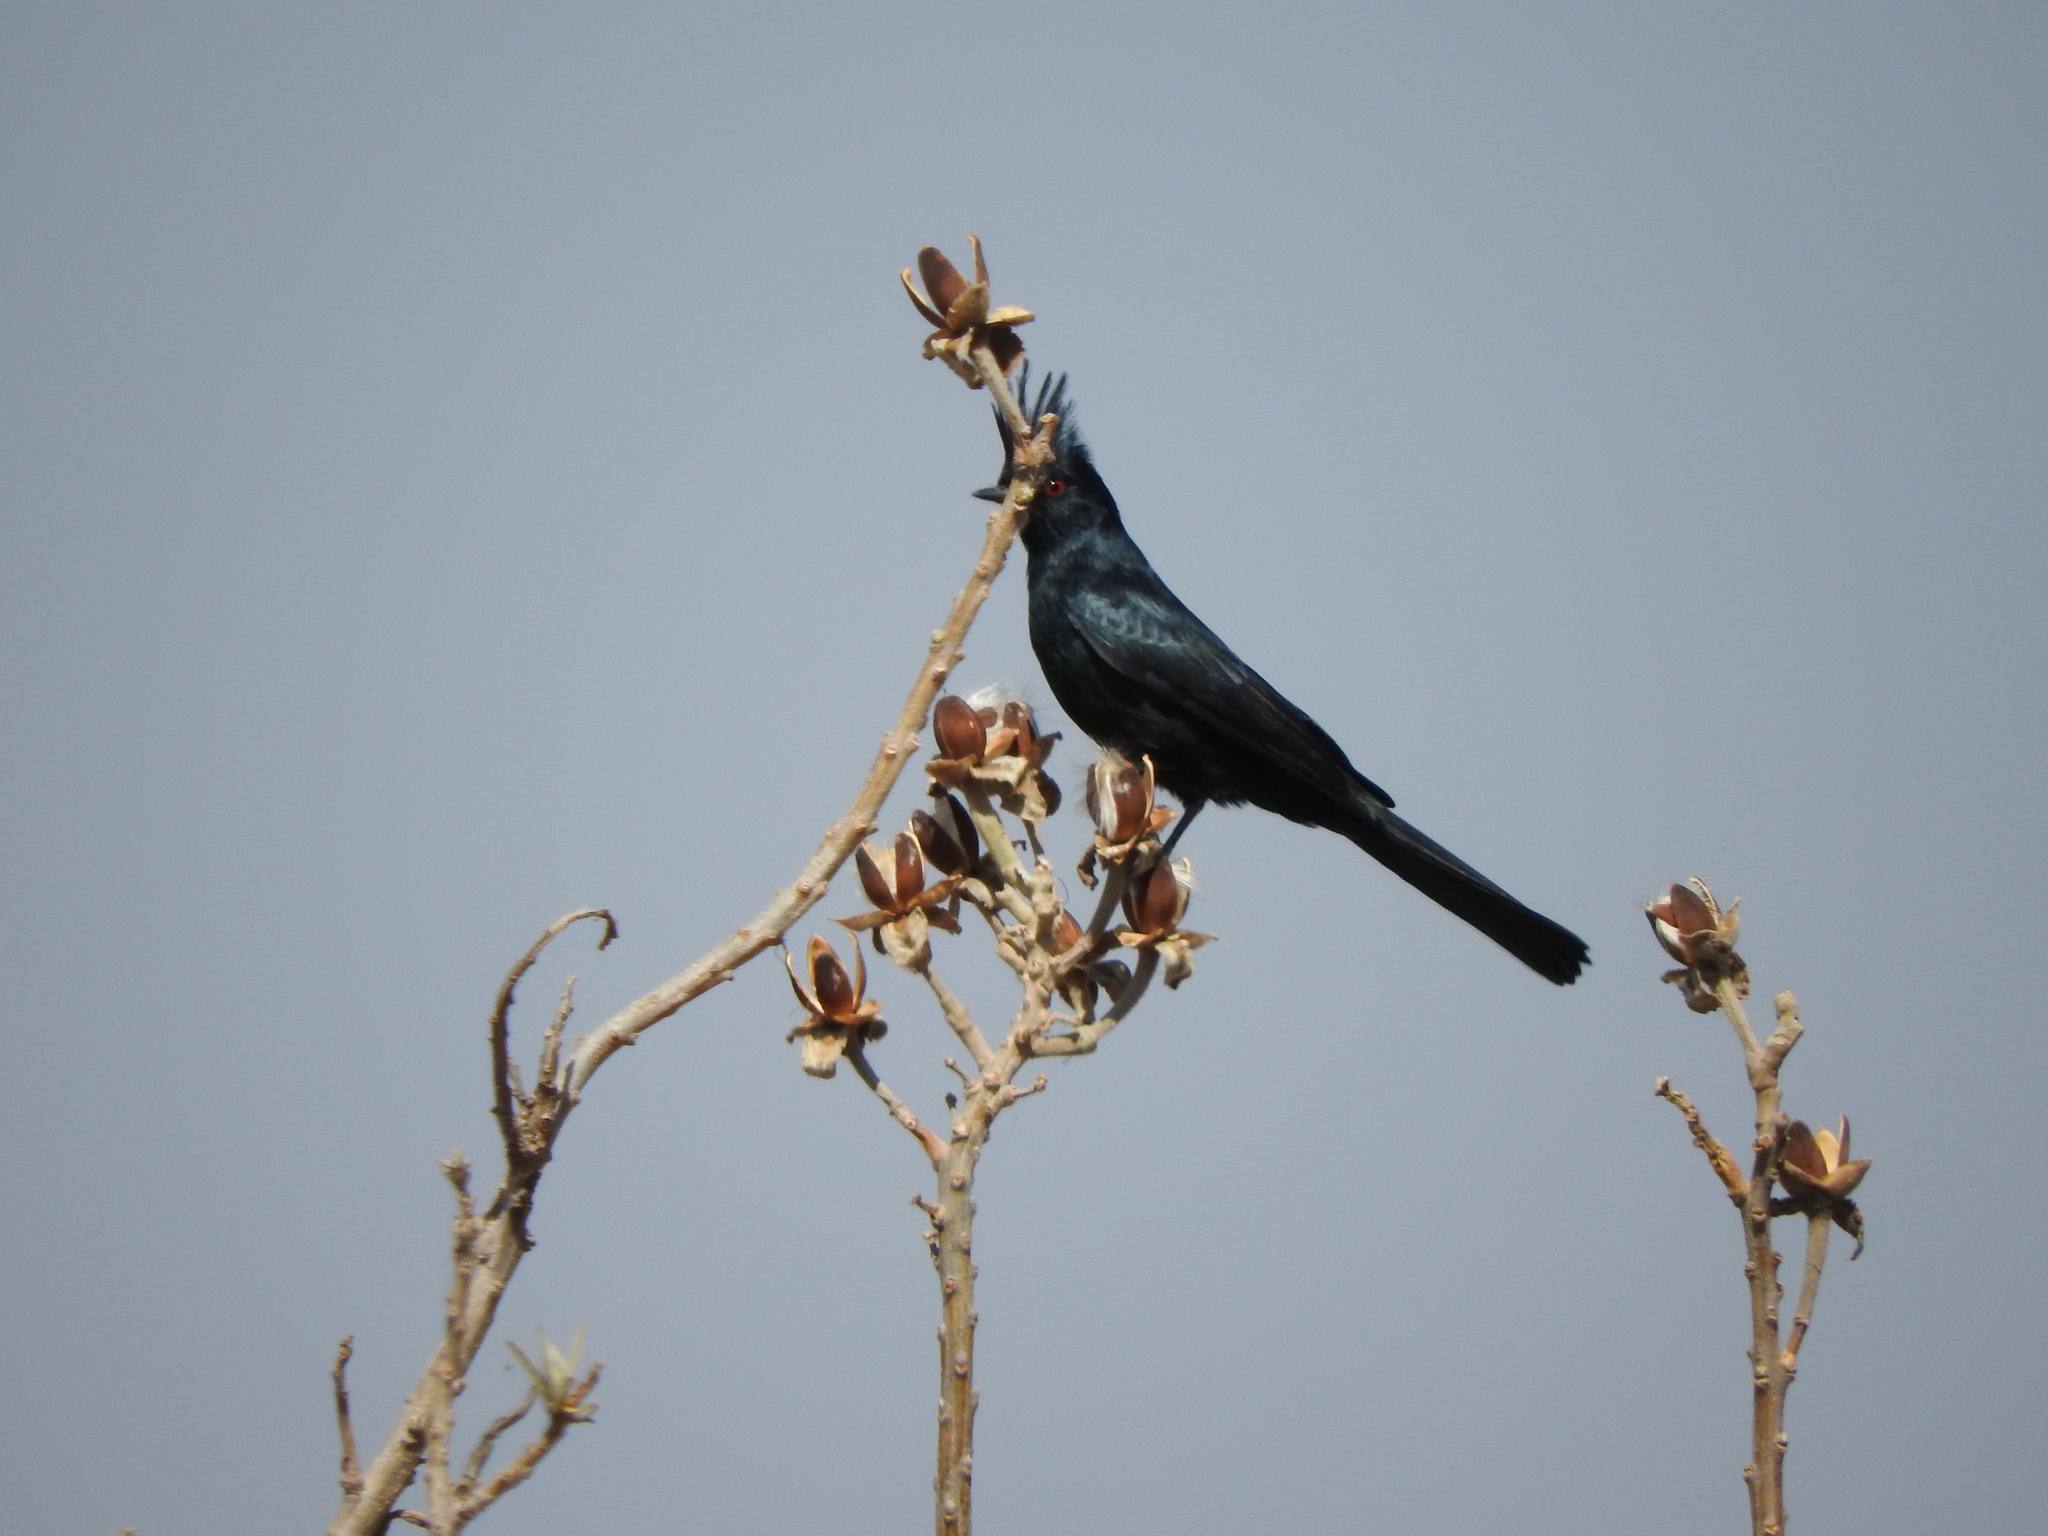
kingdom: Animalia
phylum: Chordata
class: Aves
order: Passeriformes
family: Ptilogonatidae
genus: Phainopepla
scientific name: Phainopepla nitens
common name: Phainopepla
